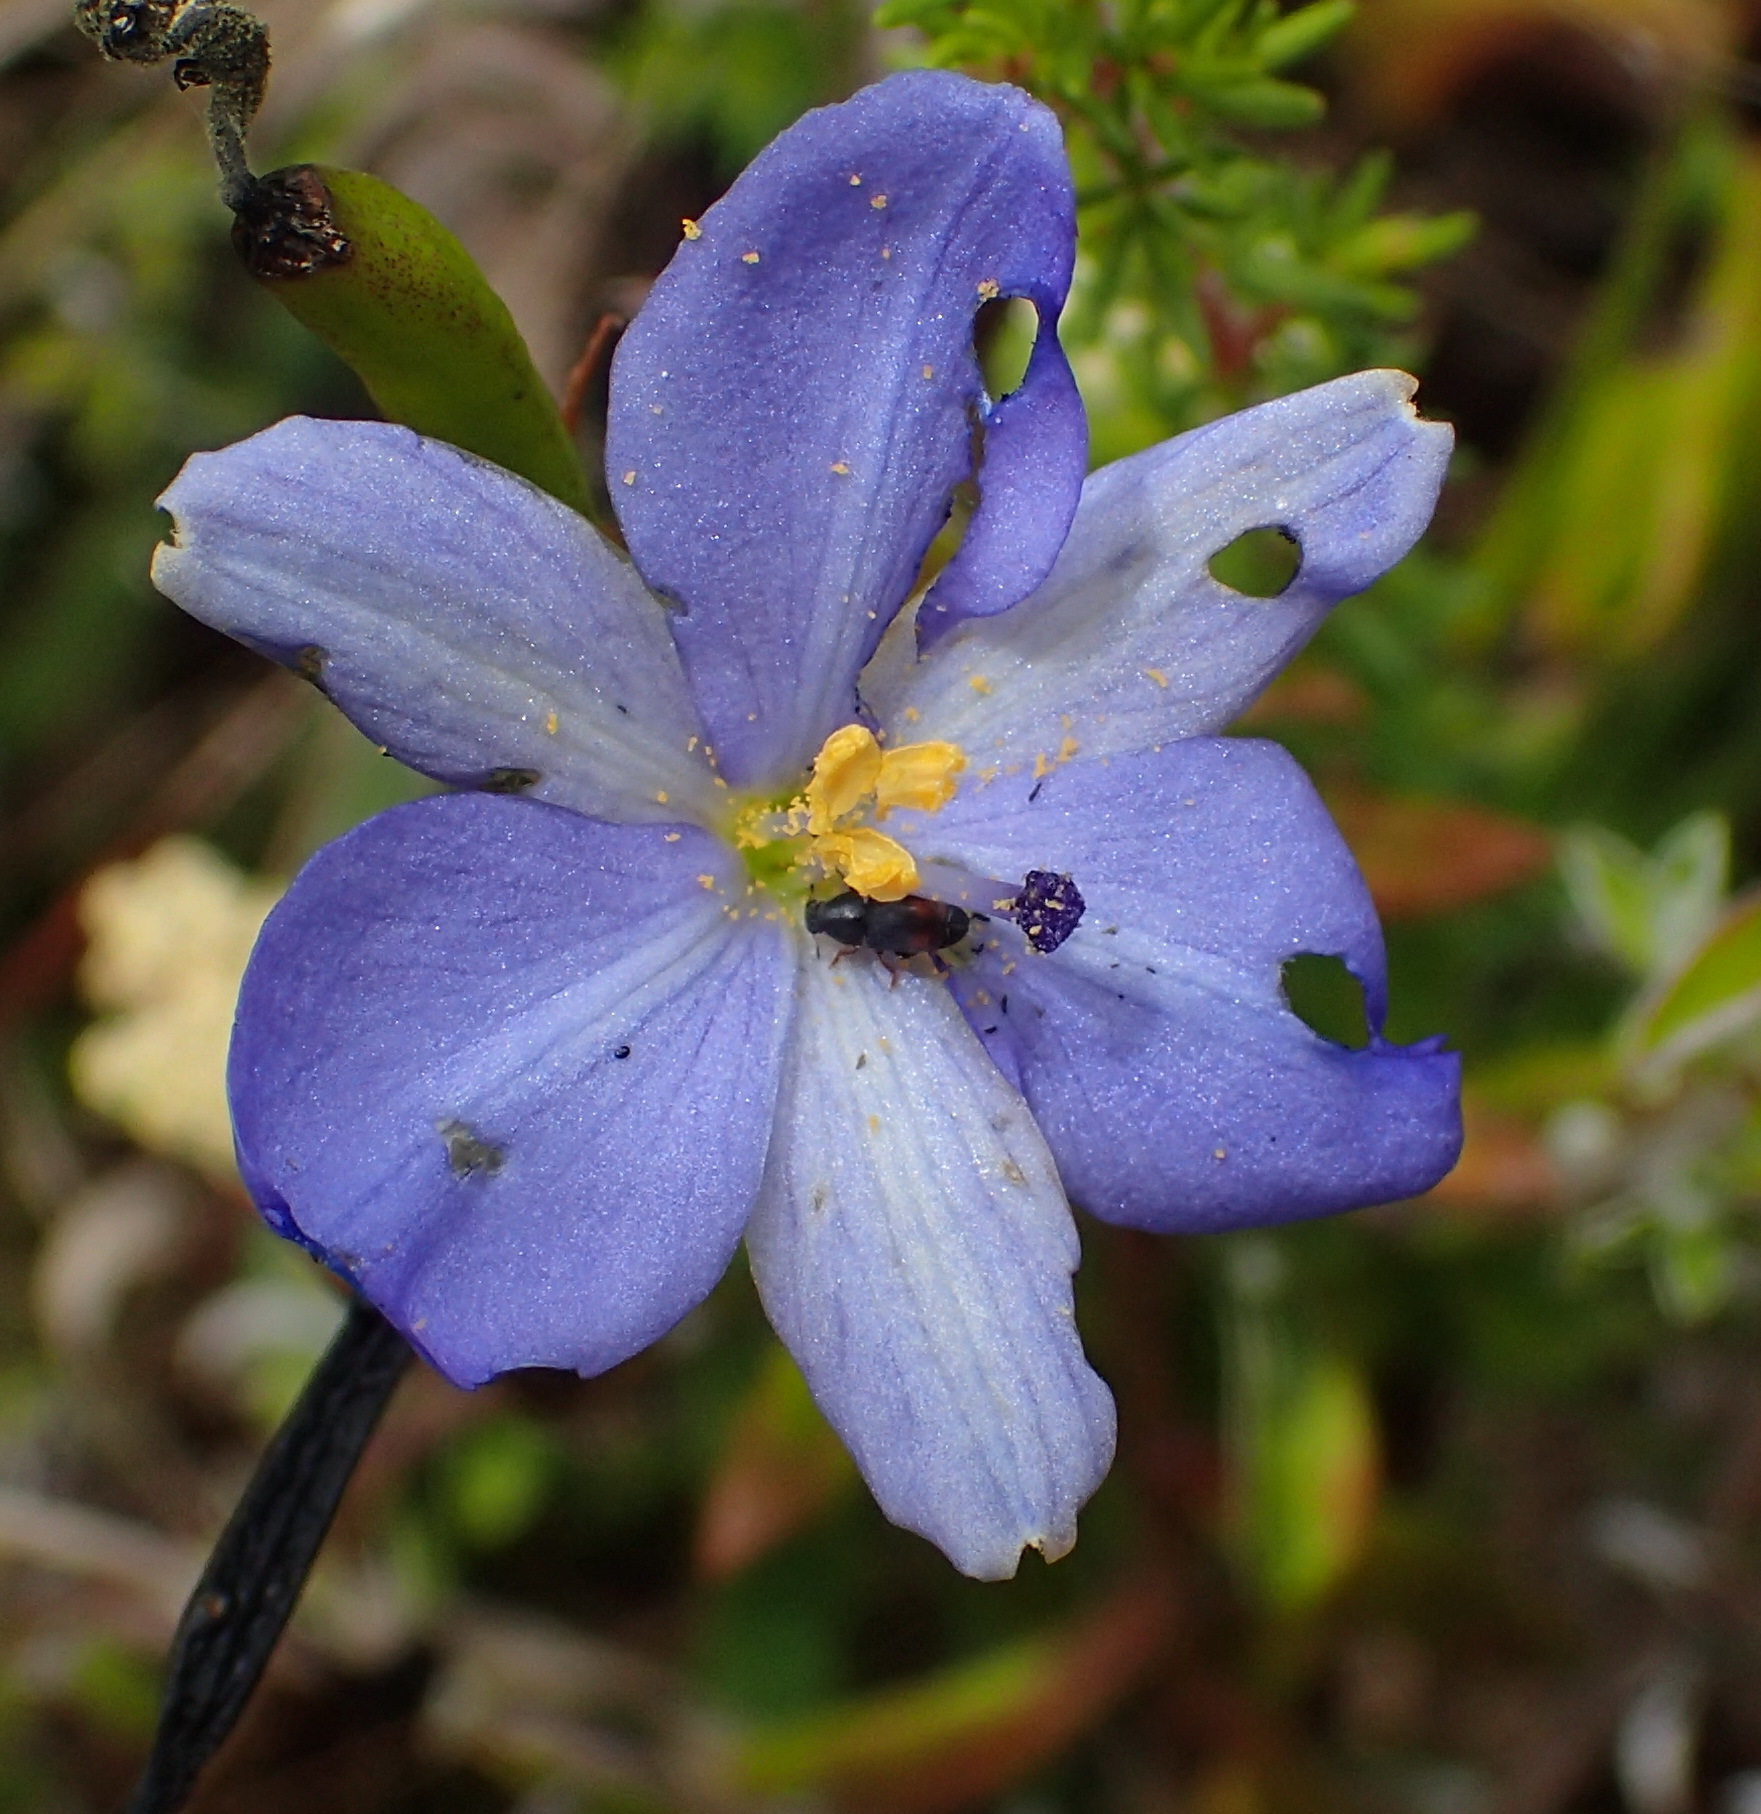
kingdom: Plantae
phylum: Tracheophyta
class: Liliopsida
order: Asparagales
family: Iridaceae
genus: Aristea
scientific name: Aristea bakeri
